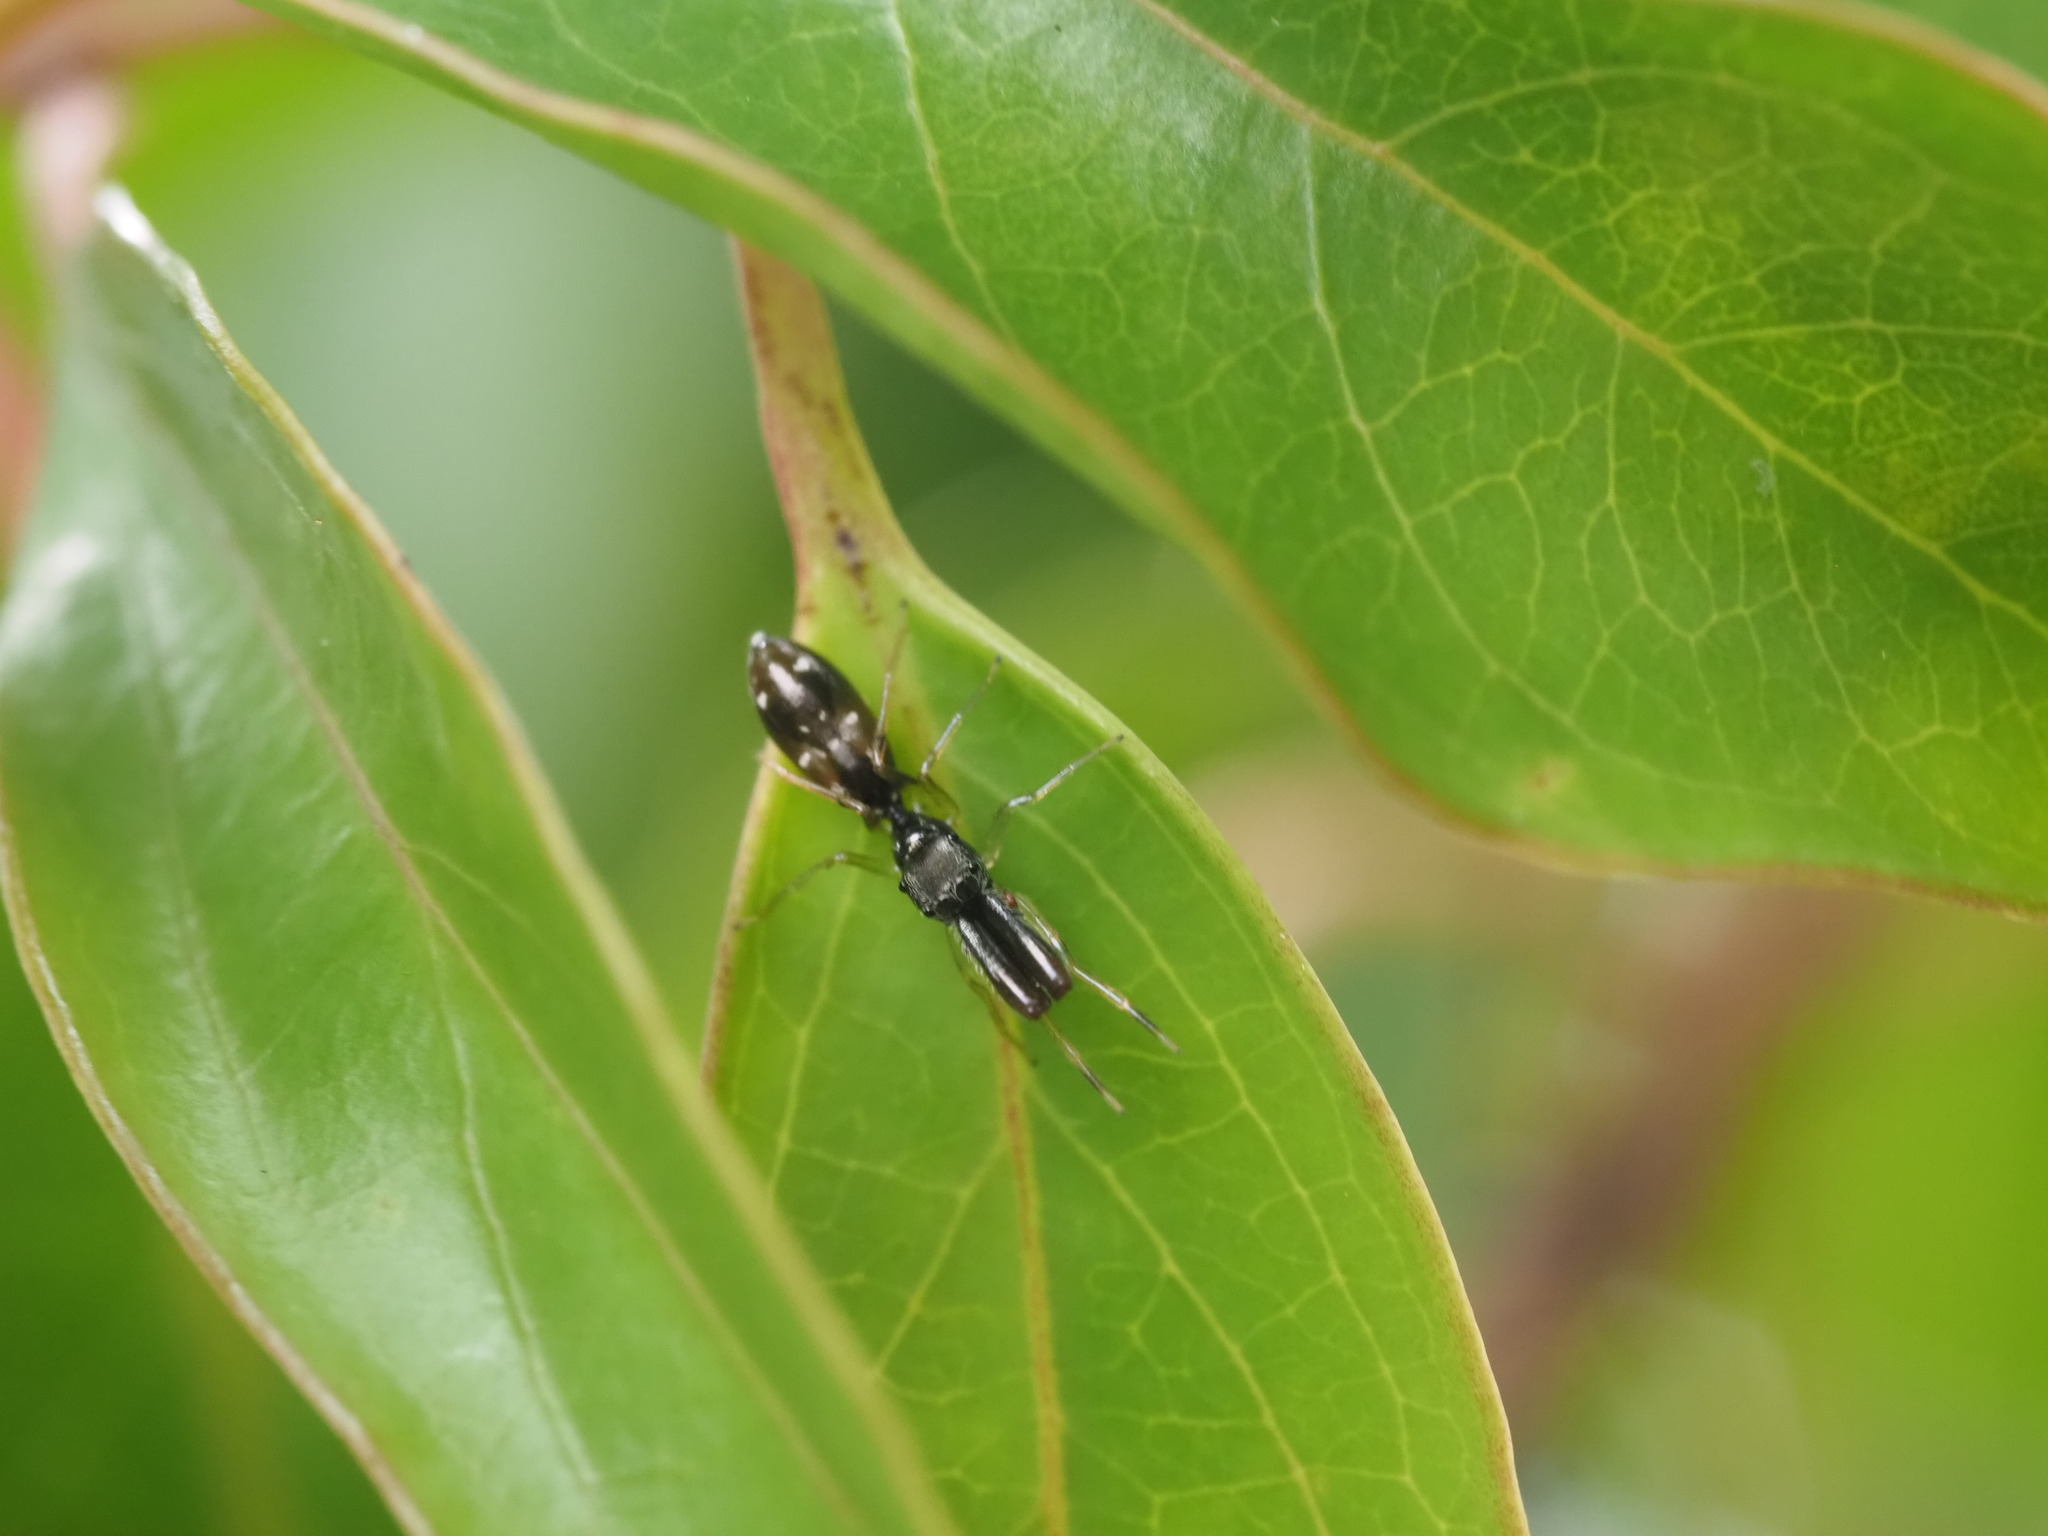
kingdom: Animalia
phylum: Arthropoda
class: Arachnida
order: Araneae
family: Salticidae
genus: Myrmarachne
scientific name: Myrmarachne nigella
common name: Jumping spider
